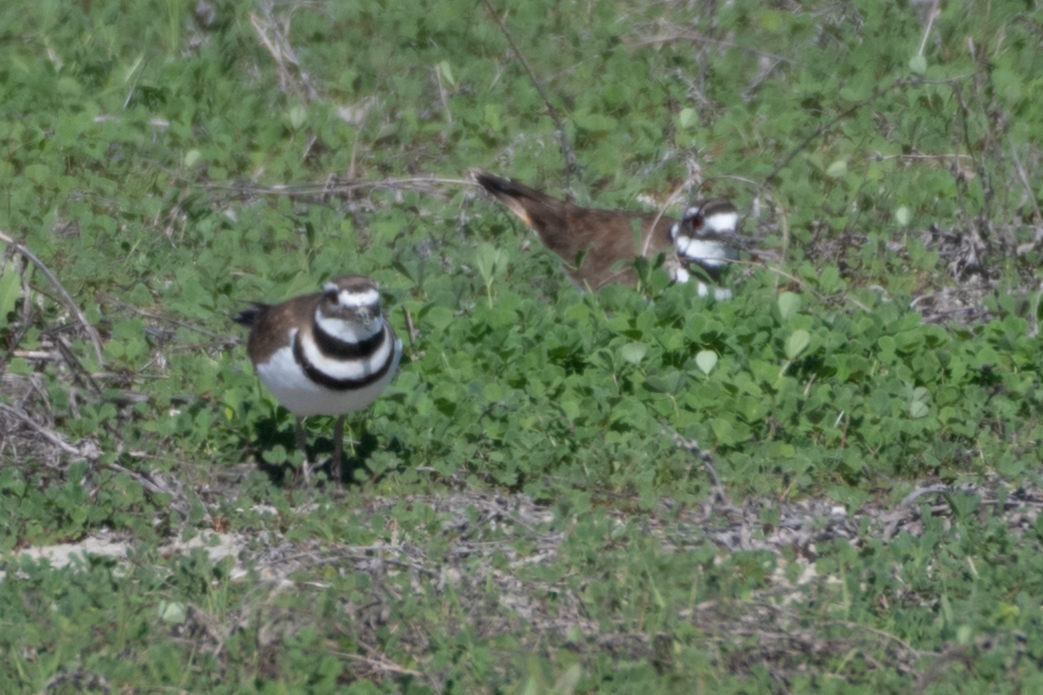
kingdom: Animalia
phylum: Chordata
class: Aves
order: Charadriiformes
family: Charadriidae
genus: Charadrius
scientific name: Charadrius vociferus
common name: Killdeer
